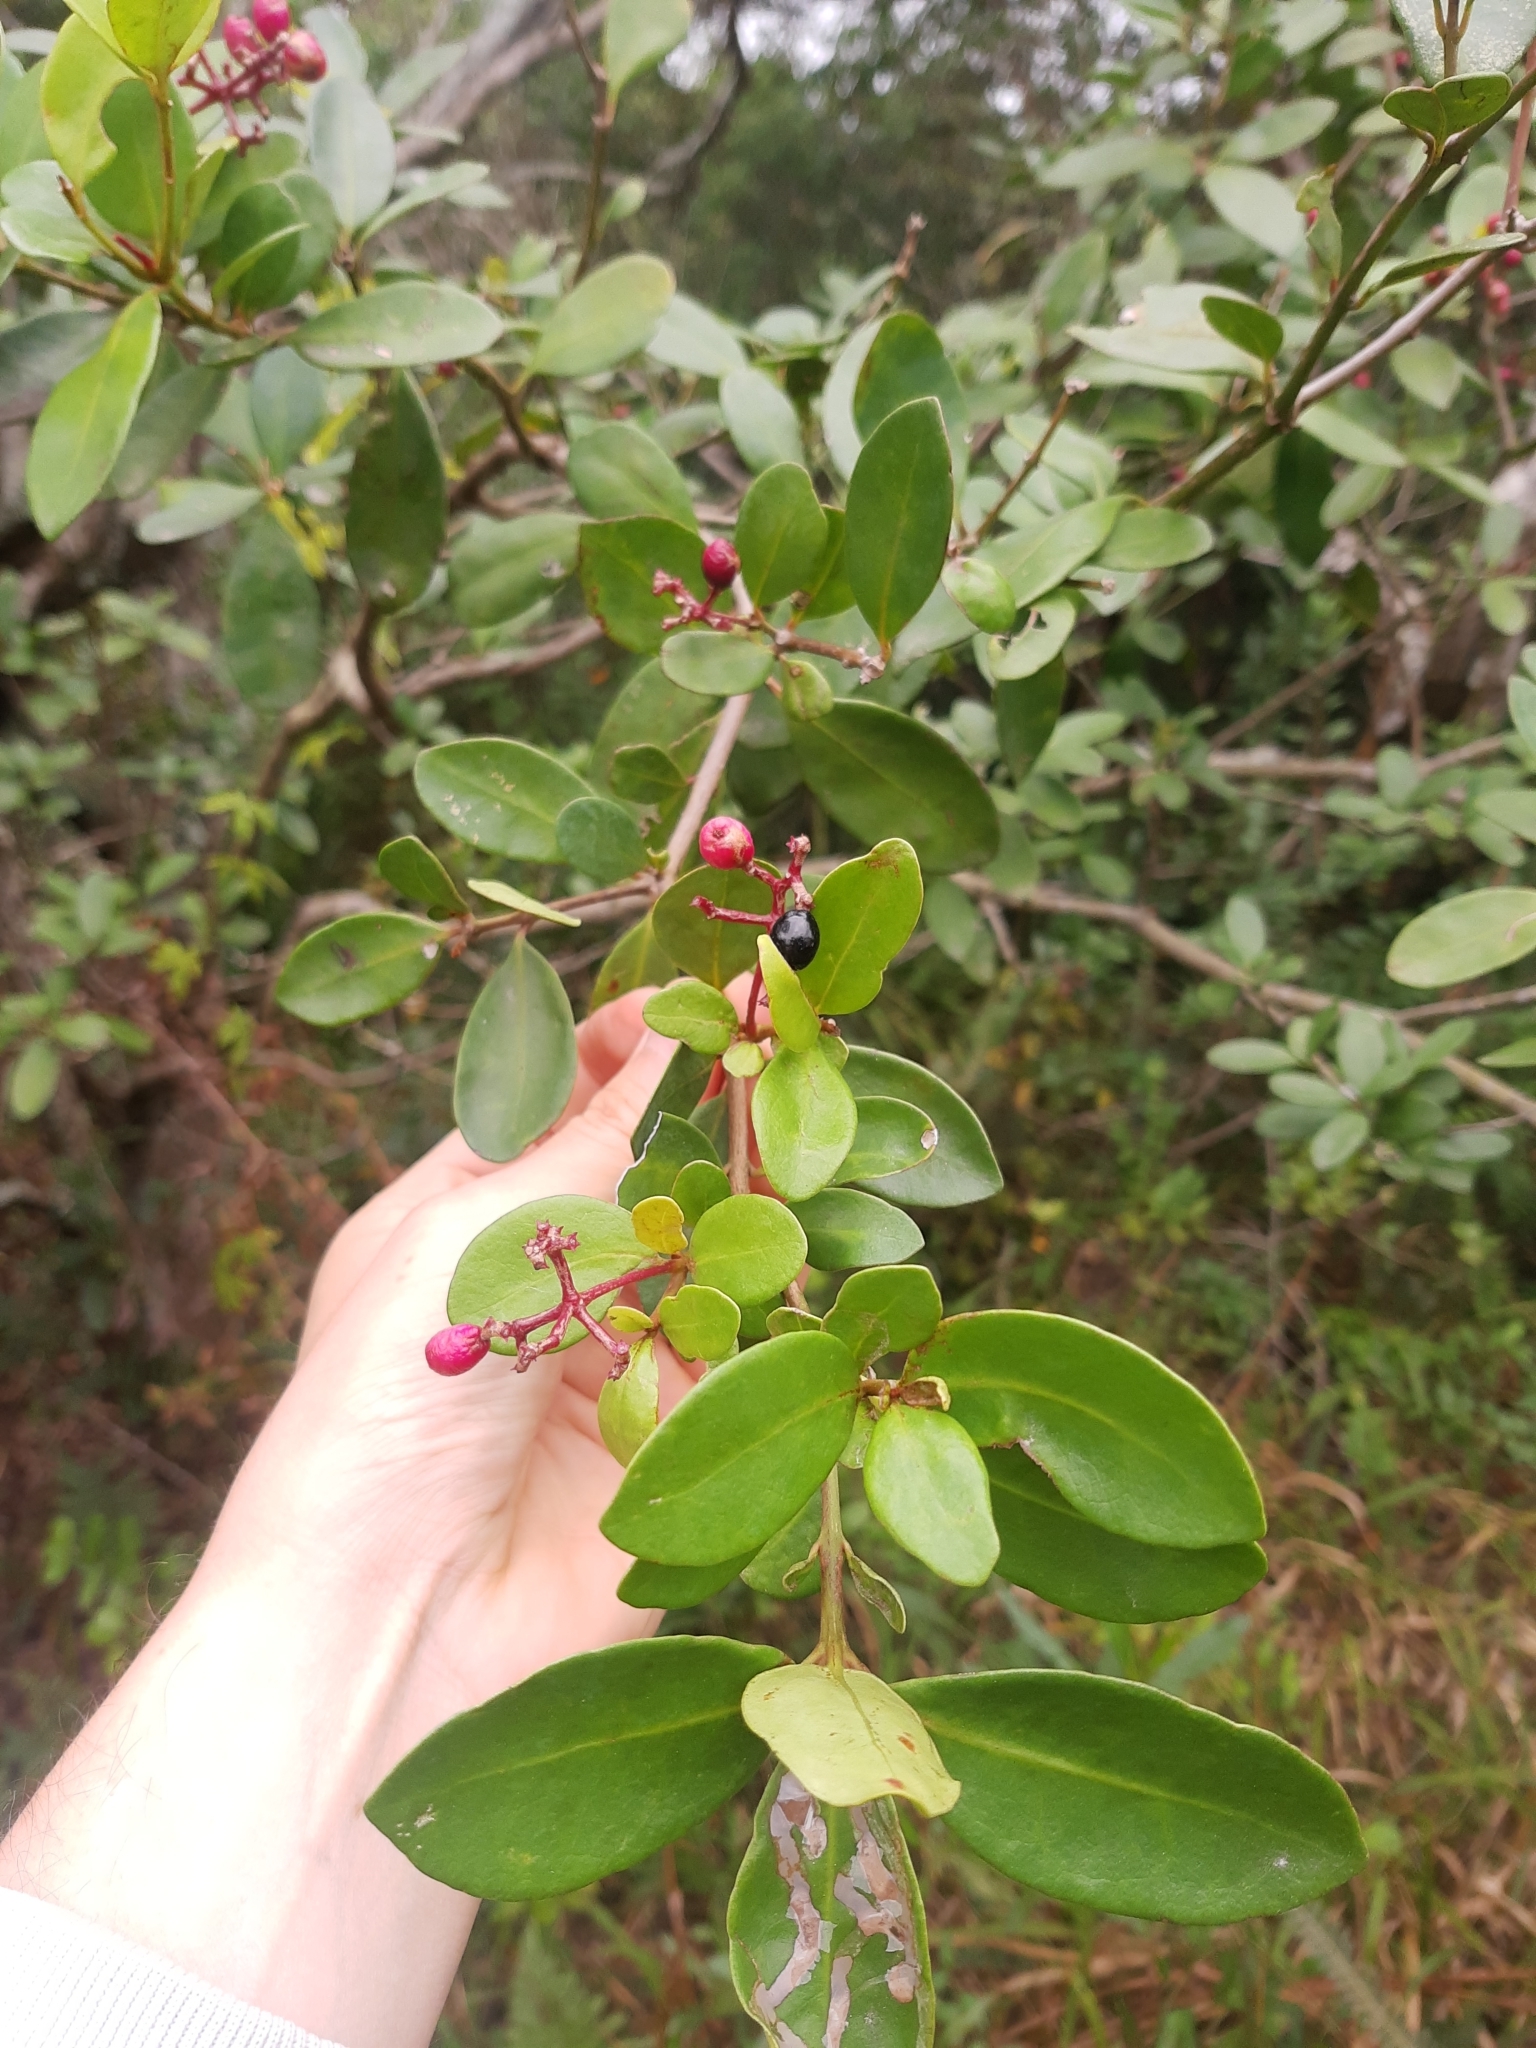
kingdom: Plantae
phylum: Tracheophyta
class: Magnoliopsida
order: Caryophyllales
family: Nyctaginaceae
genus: Guapira
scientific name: Guapira opposita
